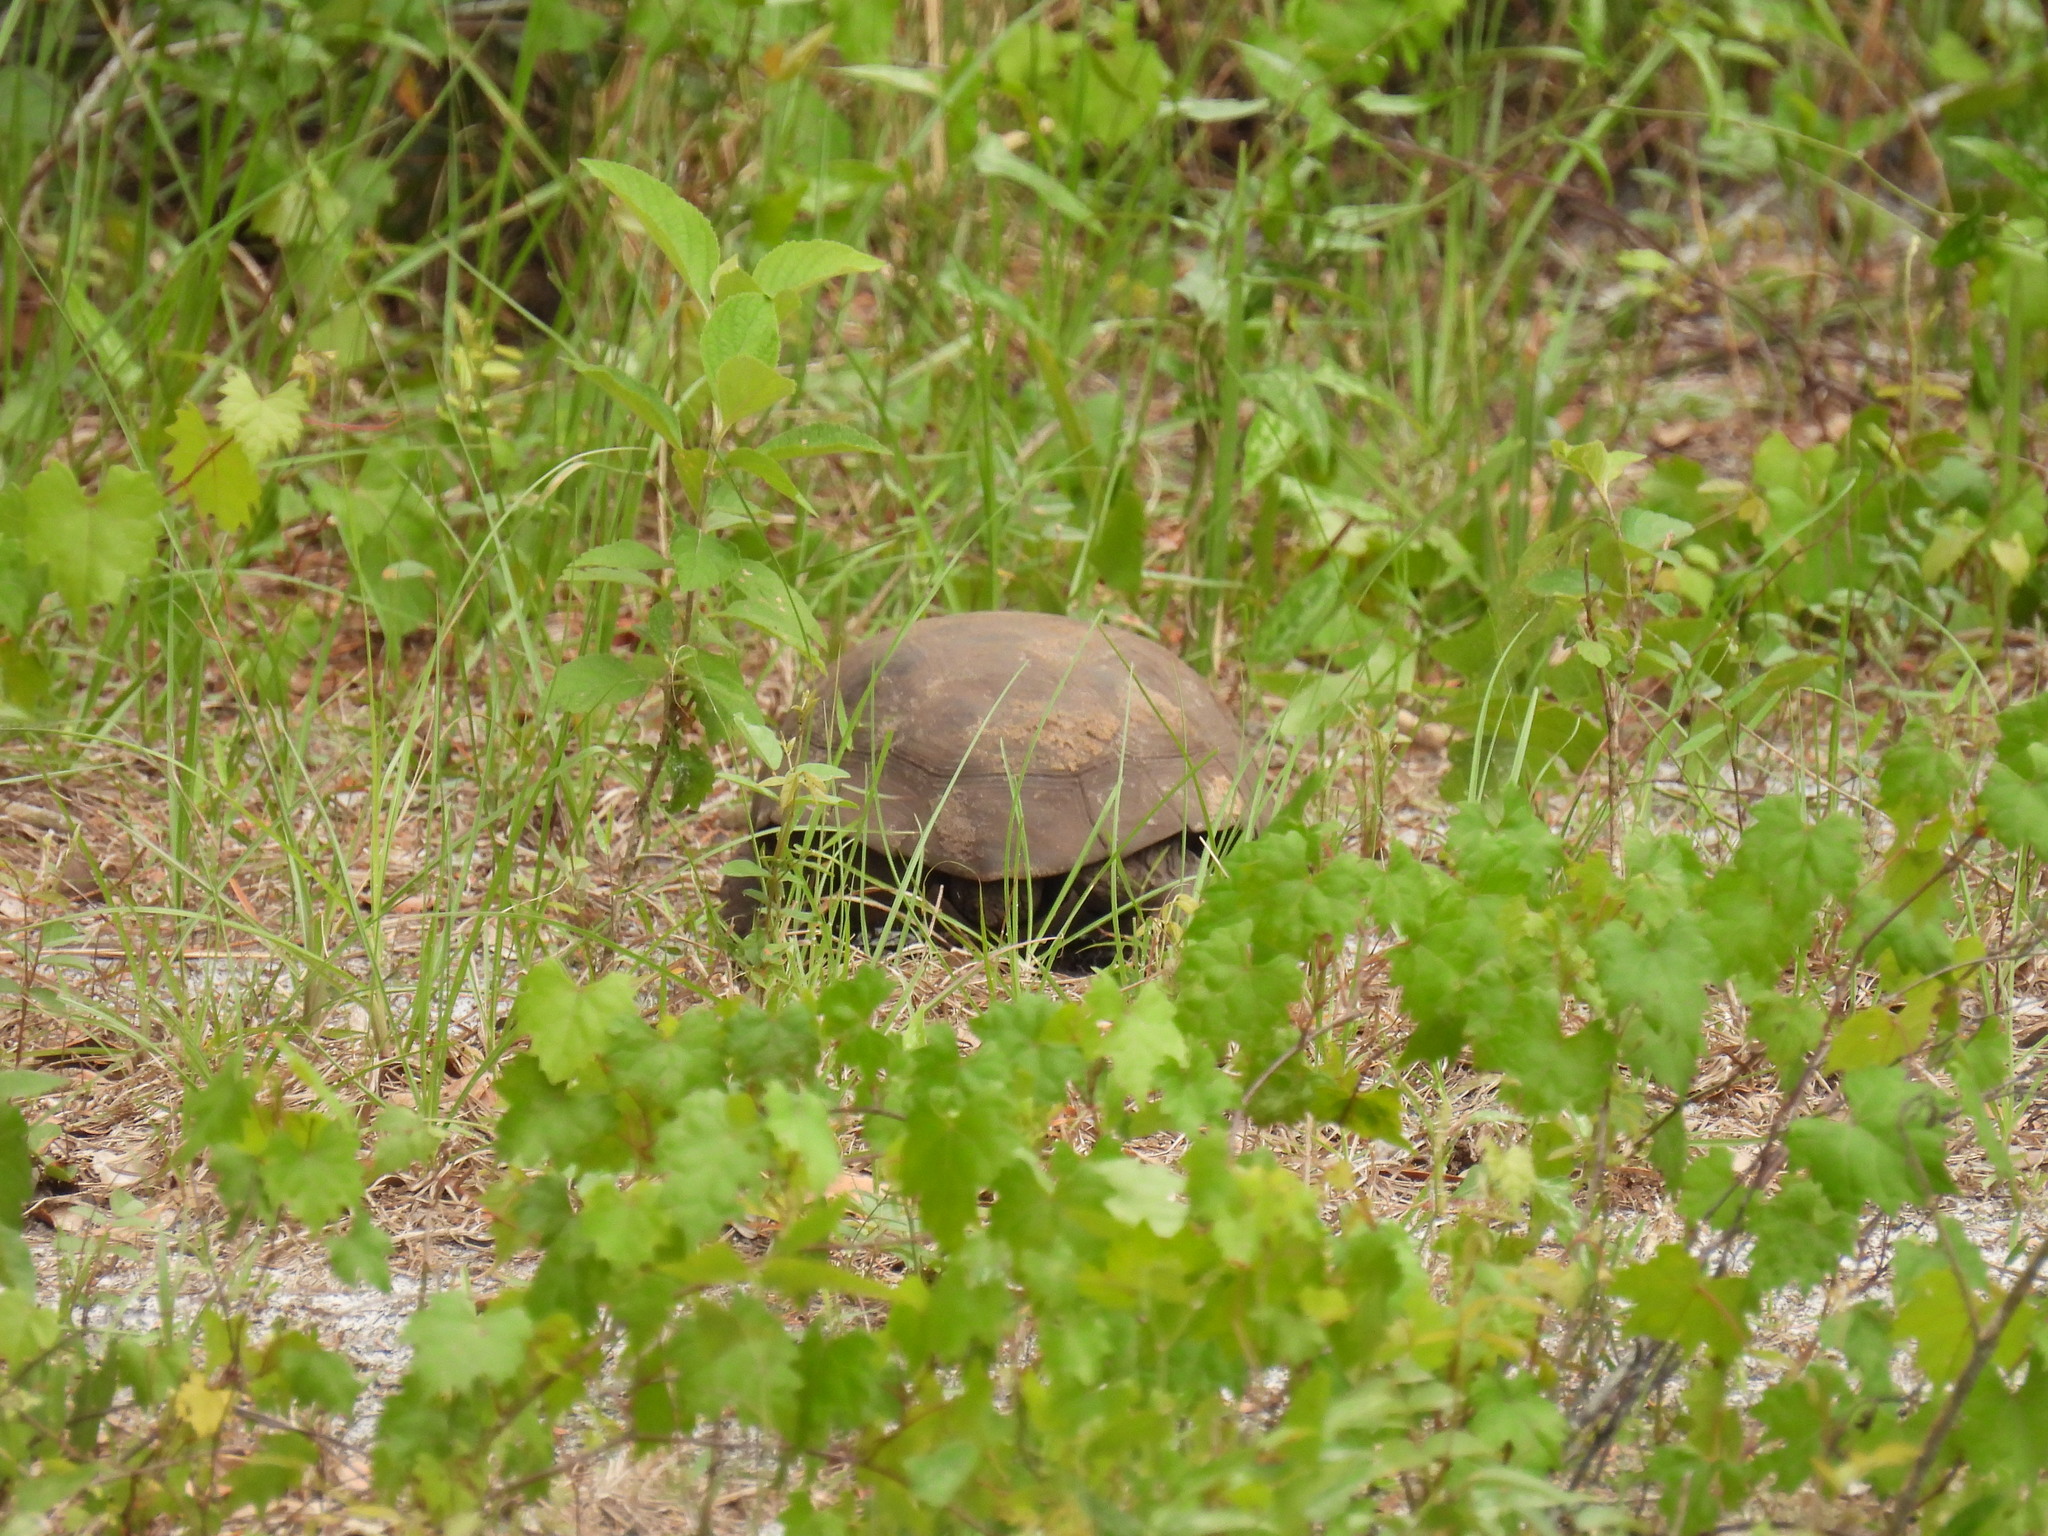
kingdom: Animalia
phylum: Chordata
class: Testudines
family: Testudinidae
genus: Gopherus
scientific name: Gopherus polyphemus
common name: Florida gopher tortoise
